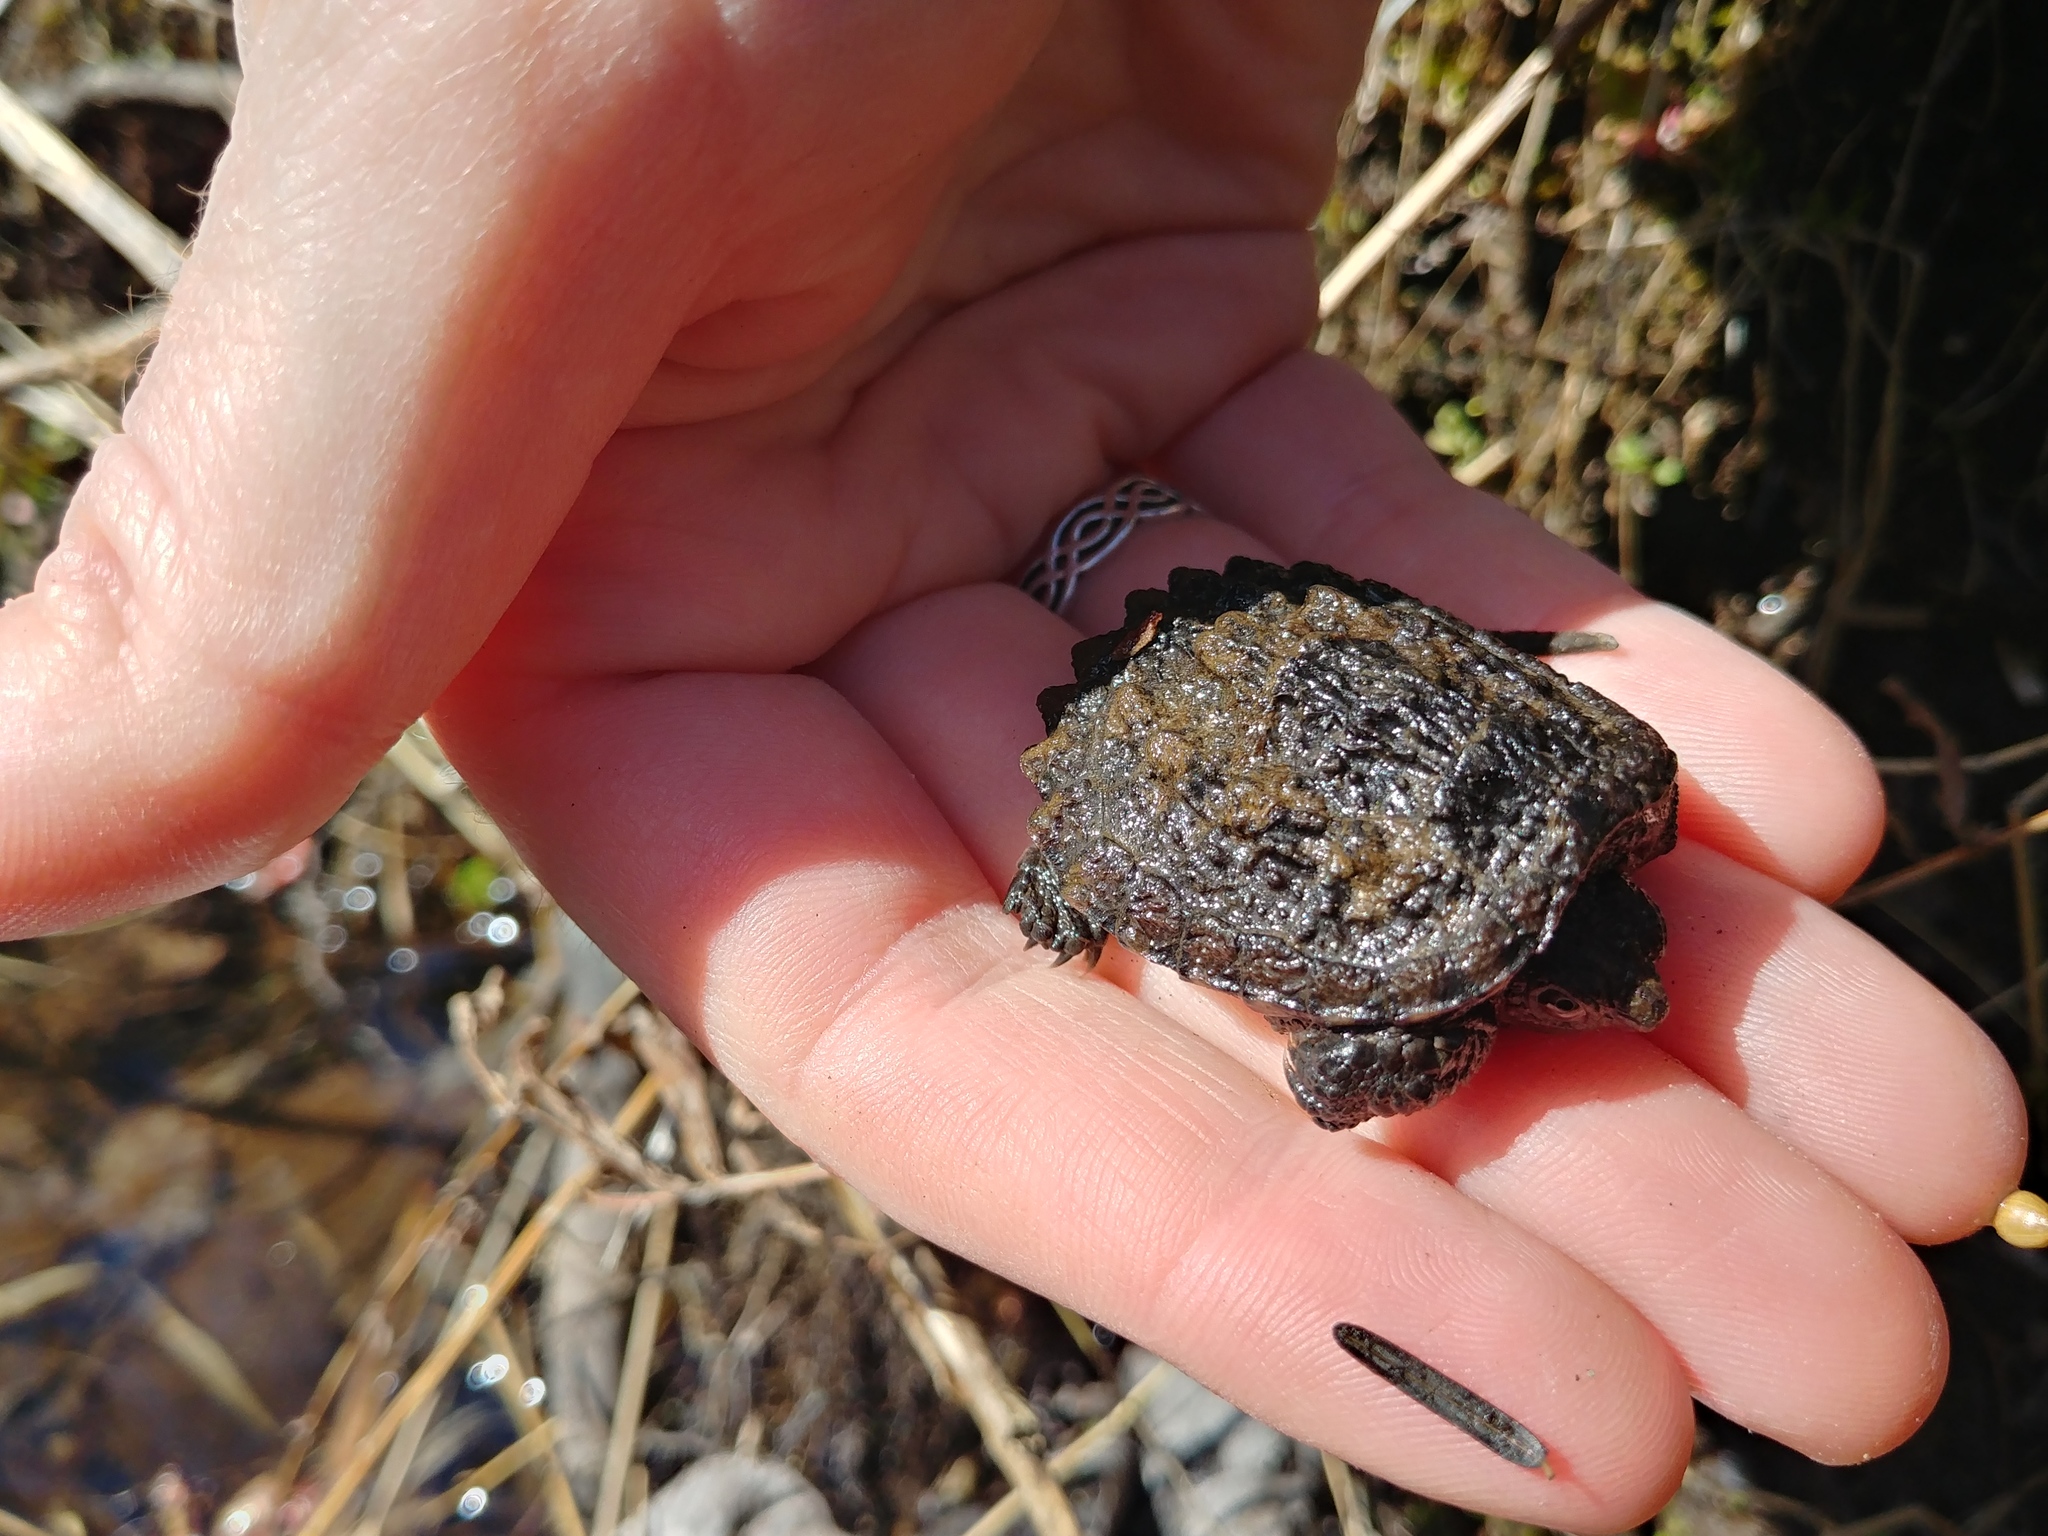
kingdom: Animalia
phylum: Chordata
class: Testudines
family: Chelydridae
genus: Chelydra
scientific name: Chelydra serpentina
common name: Common snapping turtle
